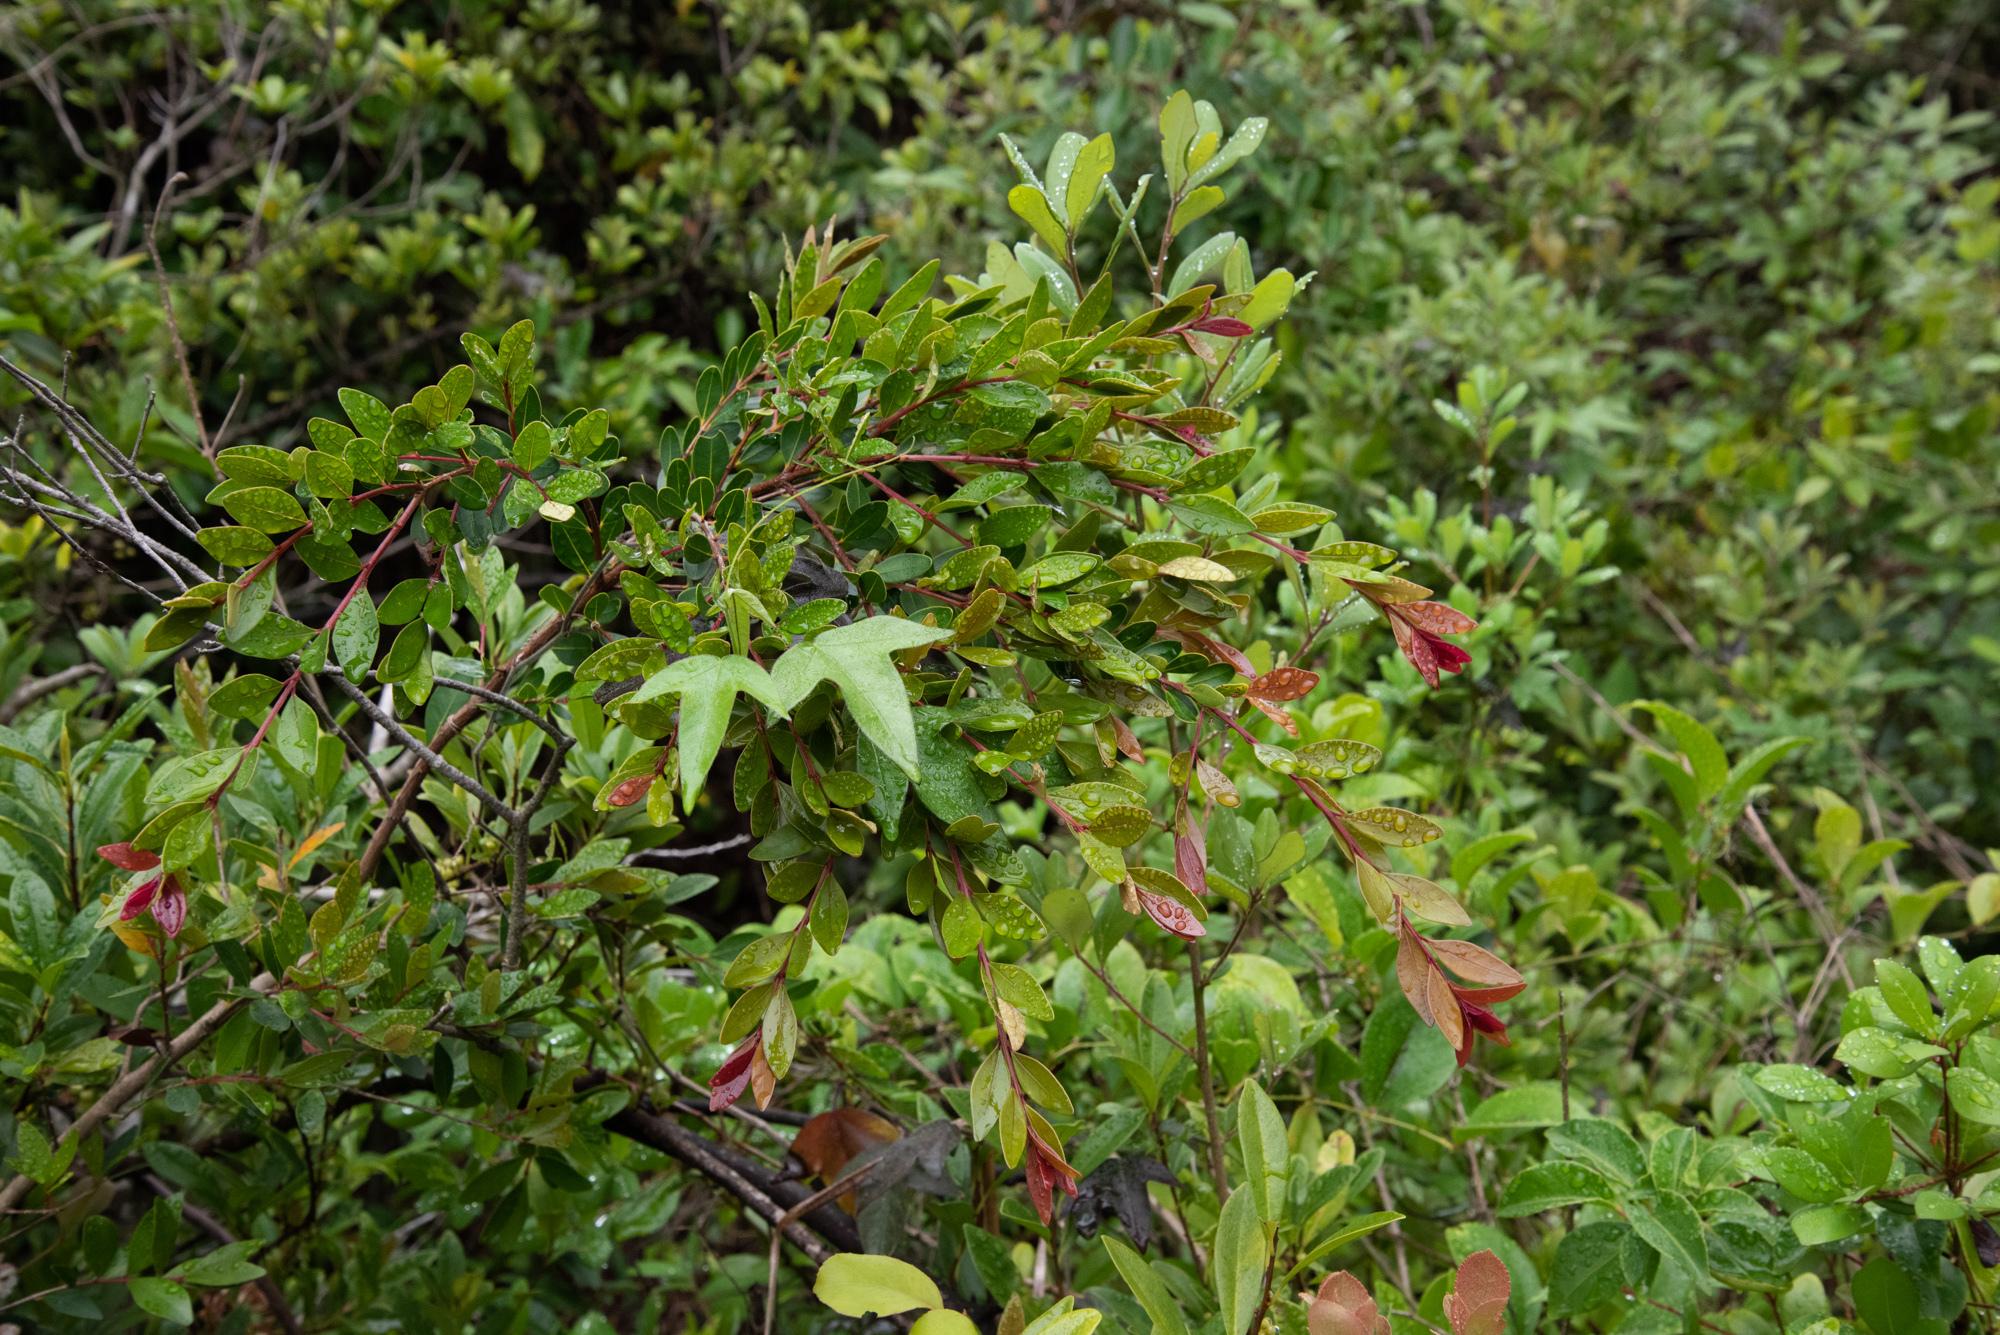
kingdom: Plantae
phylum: Tracheophyta
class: Magnoliopsida
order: Myrtales
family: Myrtaceae
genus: Syzygium
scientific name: Syzygium buxifolium
